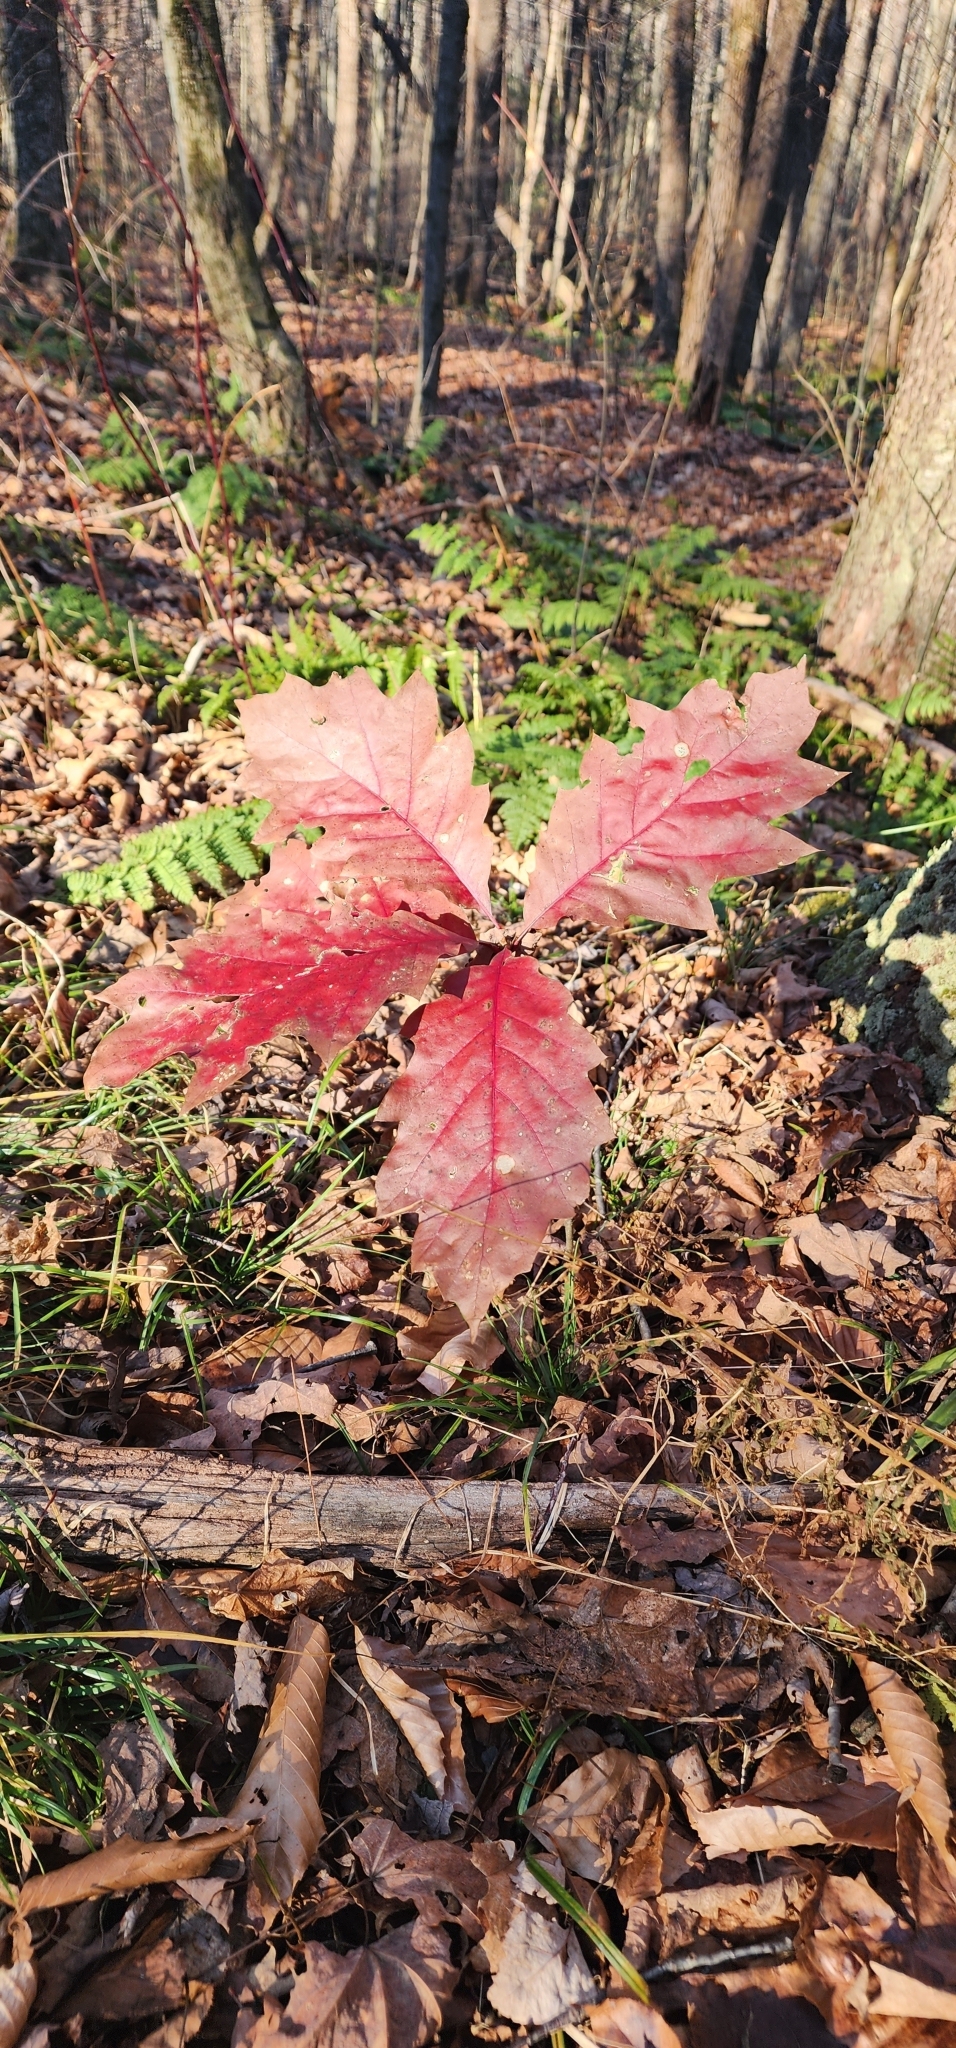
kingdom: Plantae
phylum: Tracheophyta
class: Magnoliopsida
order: Fagales
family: Fagaceae
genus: Quercus
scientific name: Quercus rubra
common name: Red oak
